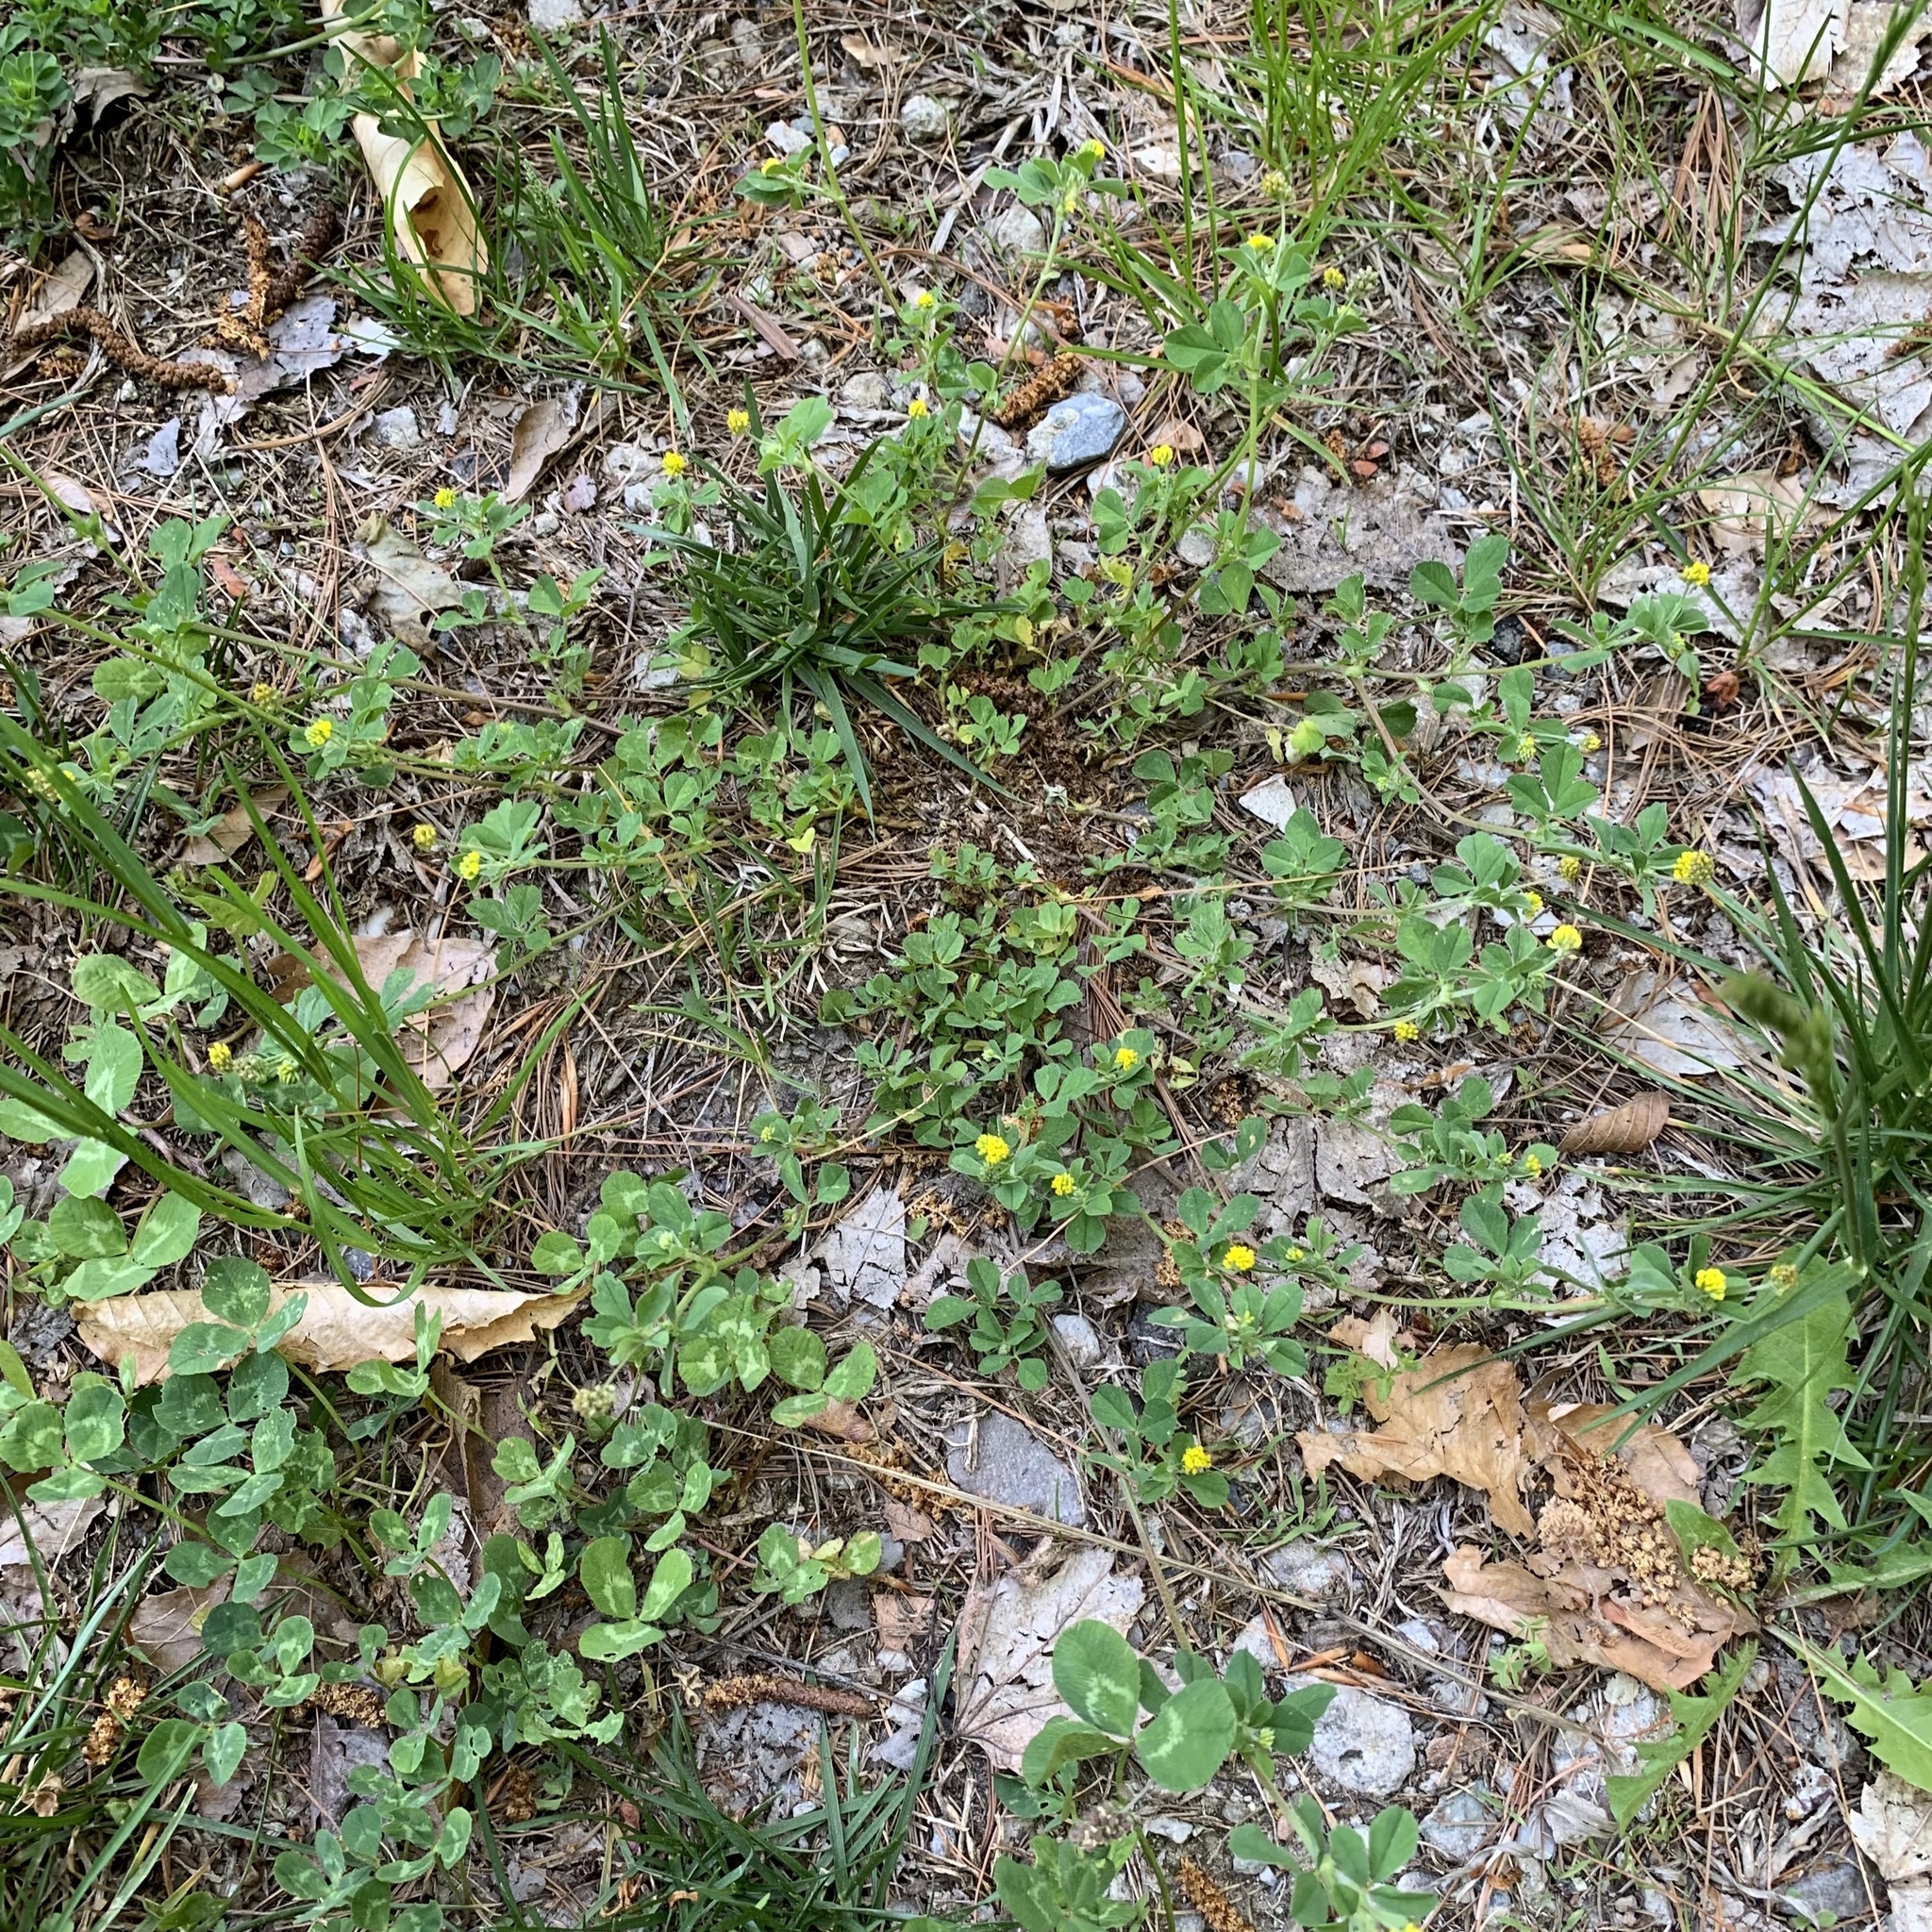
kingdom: Plantae
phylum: Tracheophyta
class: Magnoliopsida
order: Fabales
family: Fabaceae
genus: Medicago
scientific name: Medicago lupulina
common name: Black medick
